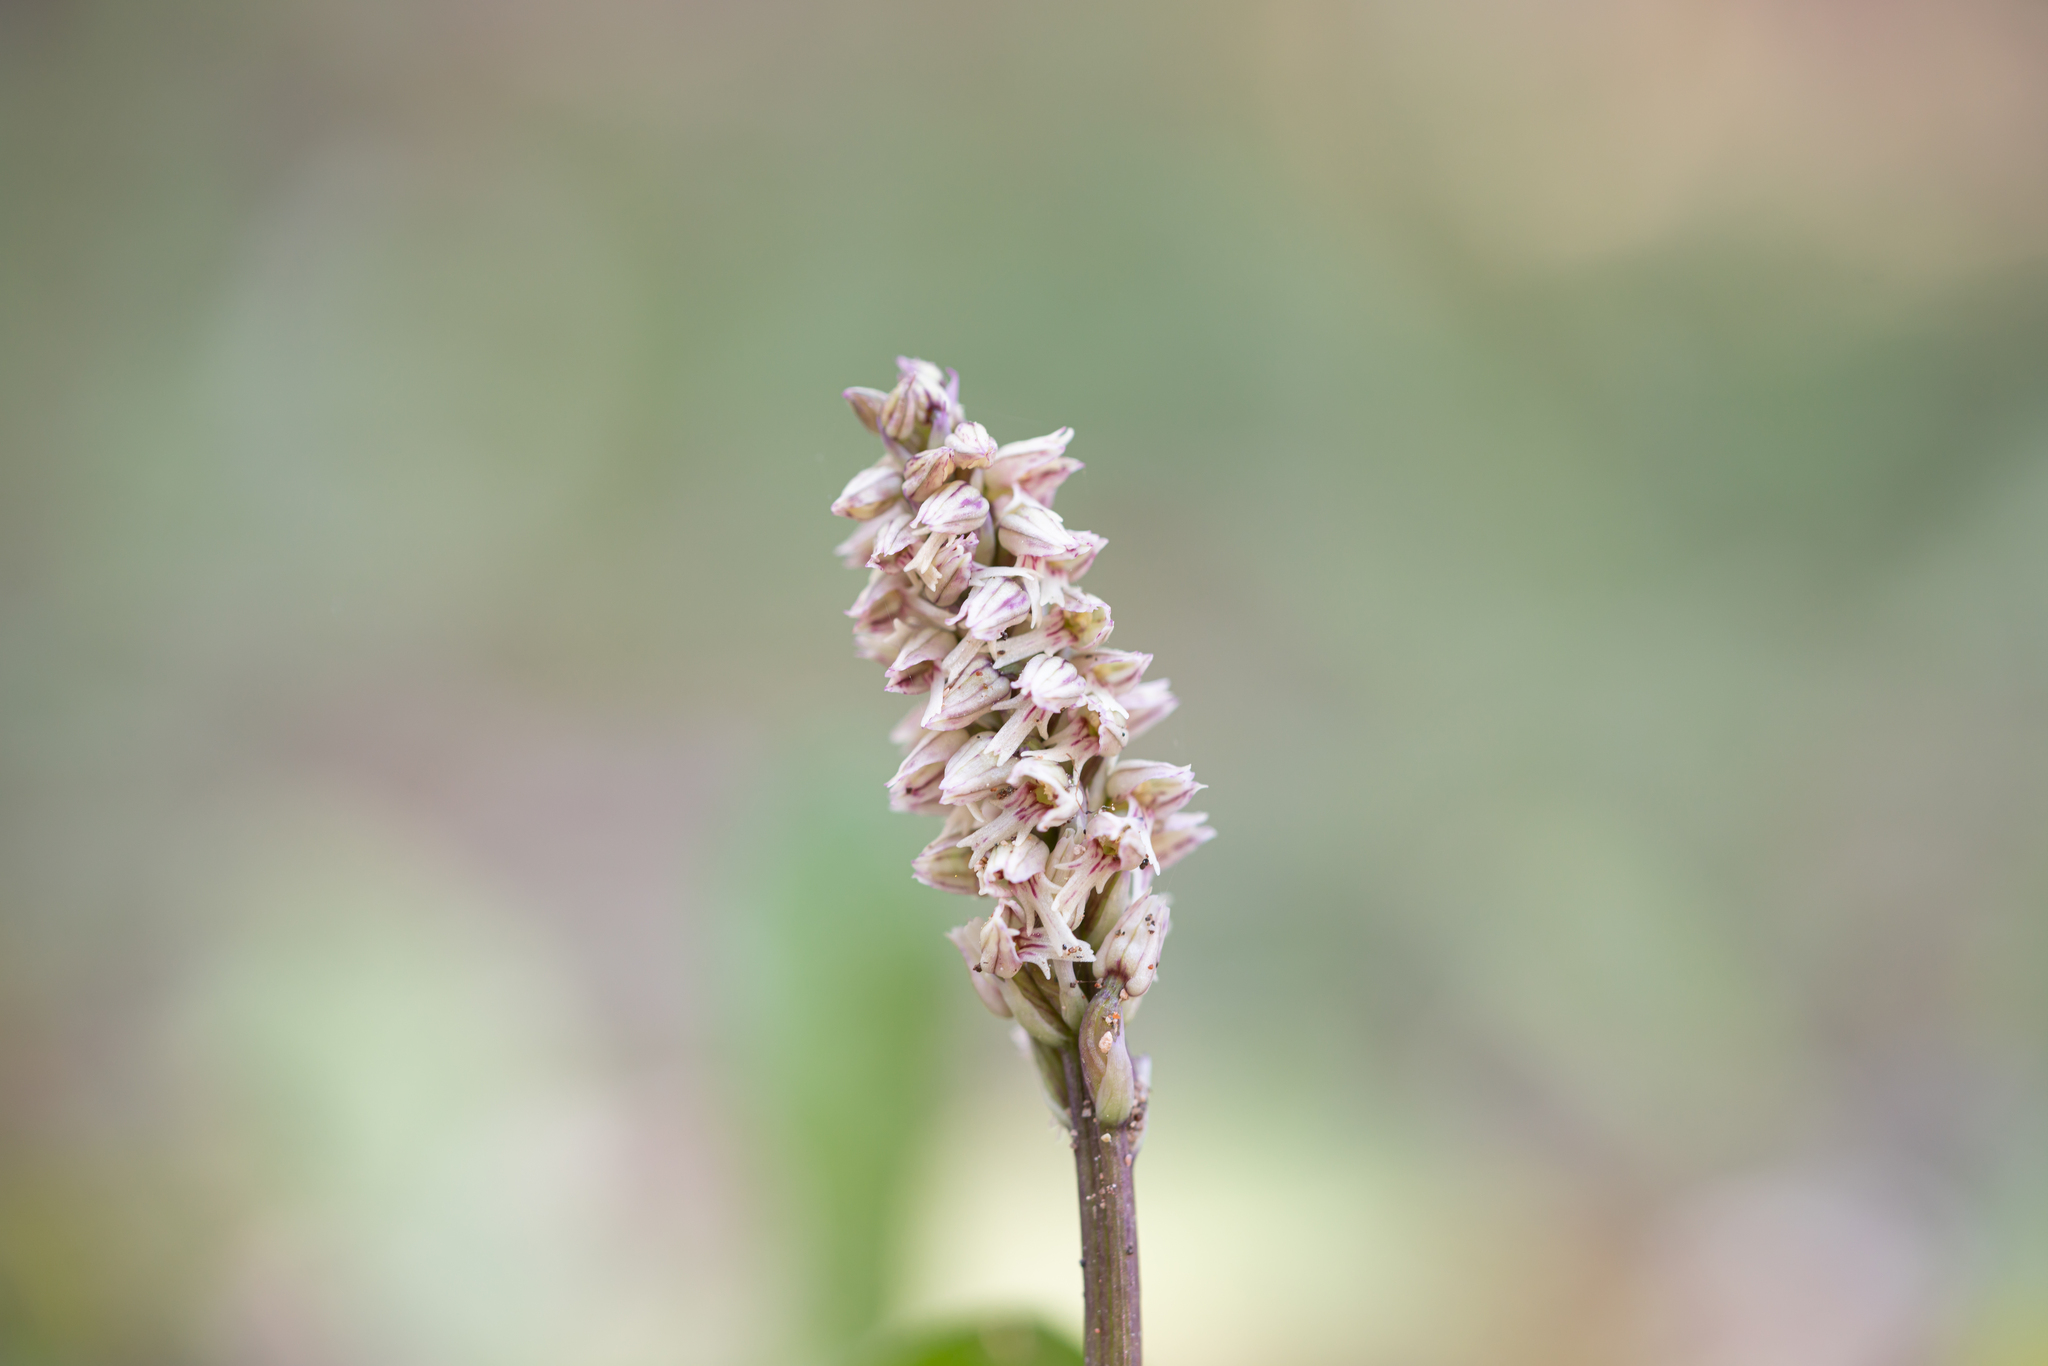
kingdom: Plantae
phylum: Tracheophyta
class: Liliopsida
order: Asparagales
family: Orchidaceae
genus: Neotinea
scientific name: Neotinea maculata
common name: Dense-flowered orchid
